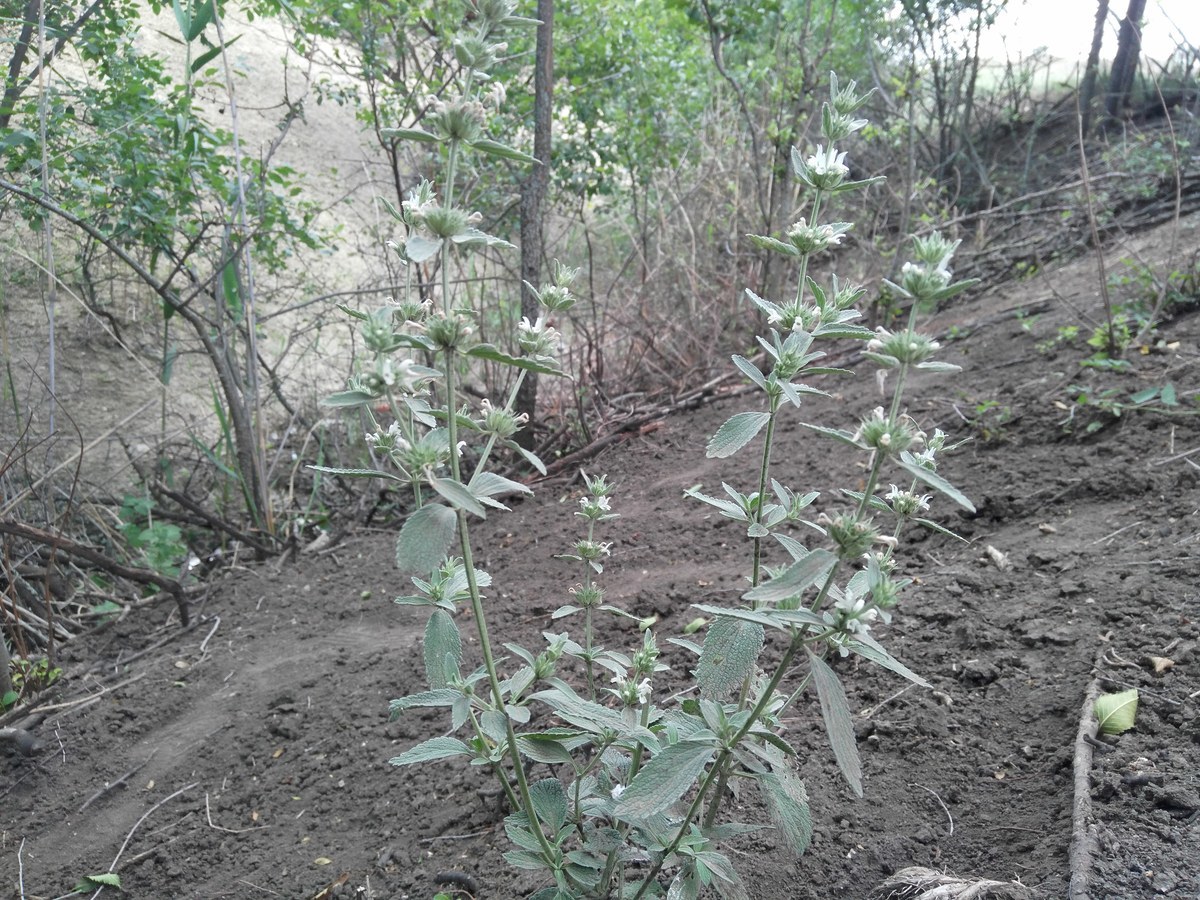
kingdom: Plantae
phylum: Tracheophyta
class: Magnoliopsida
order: Lamiales
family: Lamiaceae
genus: Marrubium
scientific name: Marrubium peregrinum
